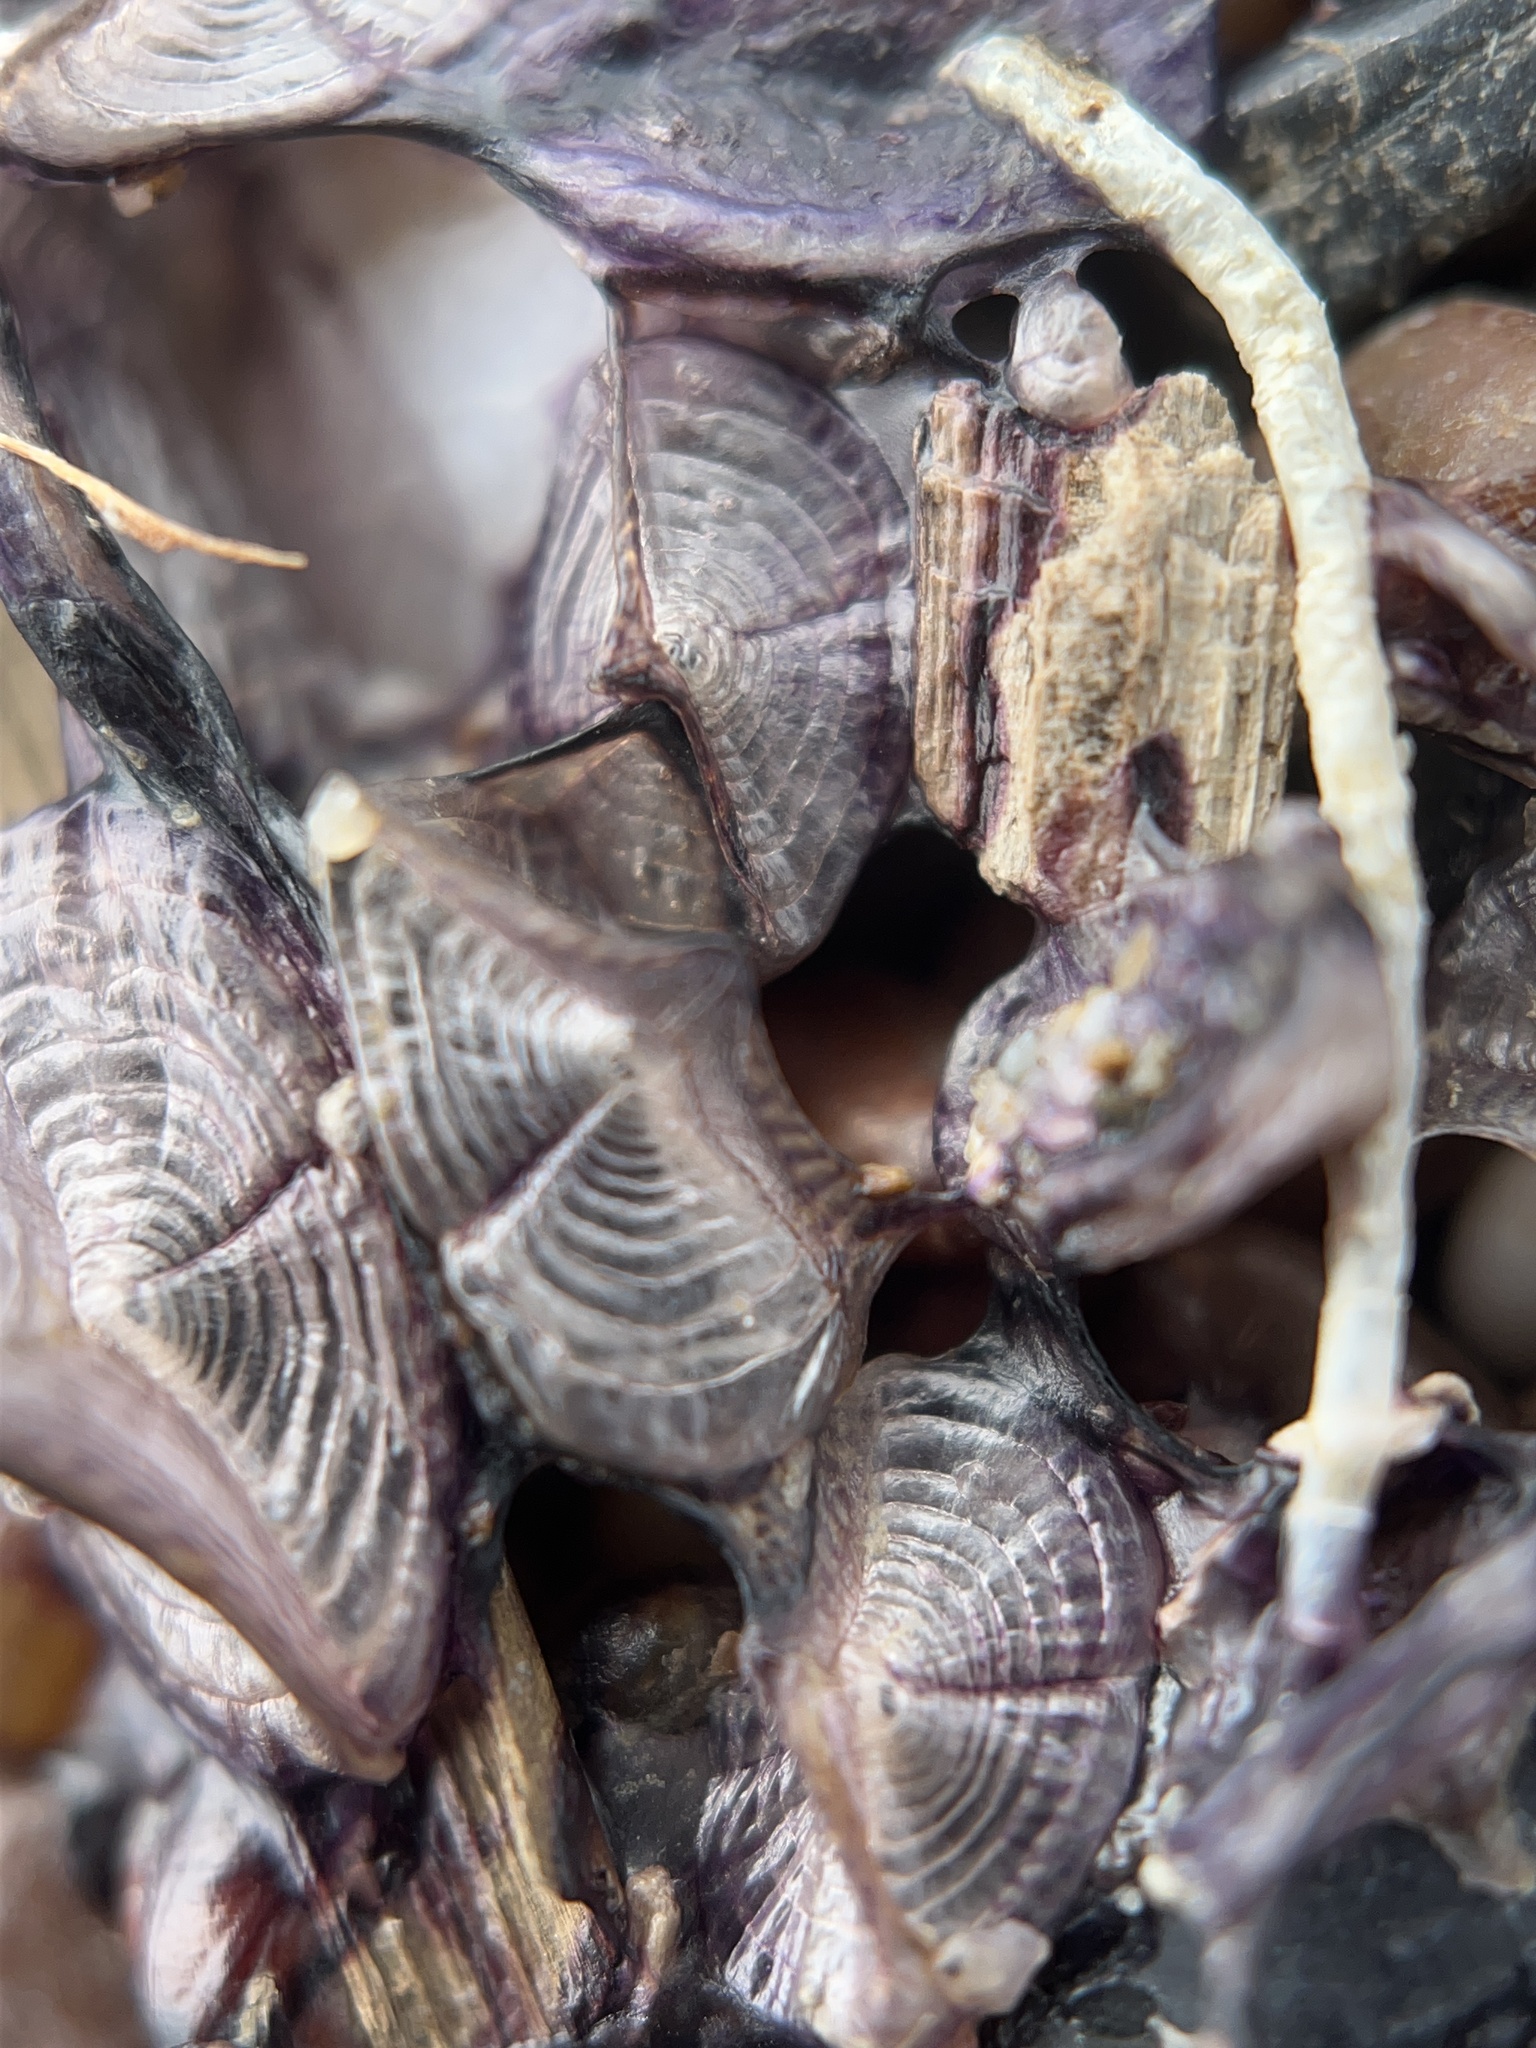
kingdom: Animalia
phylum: Cnidaria
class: Hydrozoa
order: Anthoathecata
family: Porpitidae
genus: Velella
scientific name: Velella velella
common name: By-the-wind-sailor
